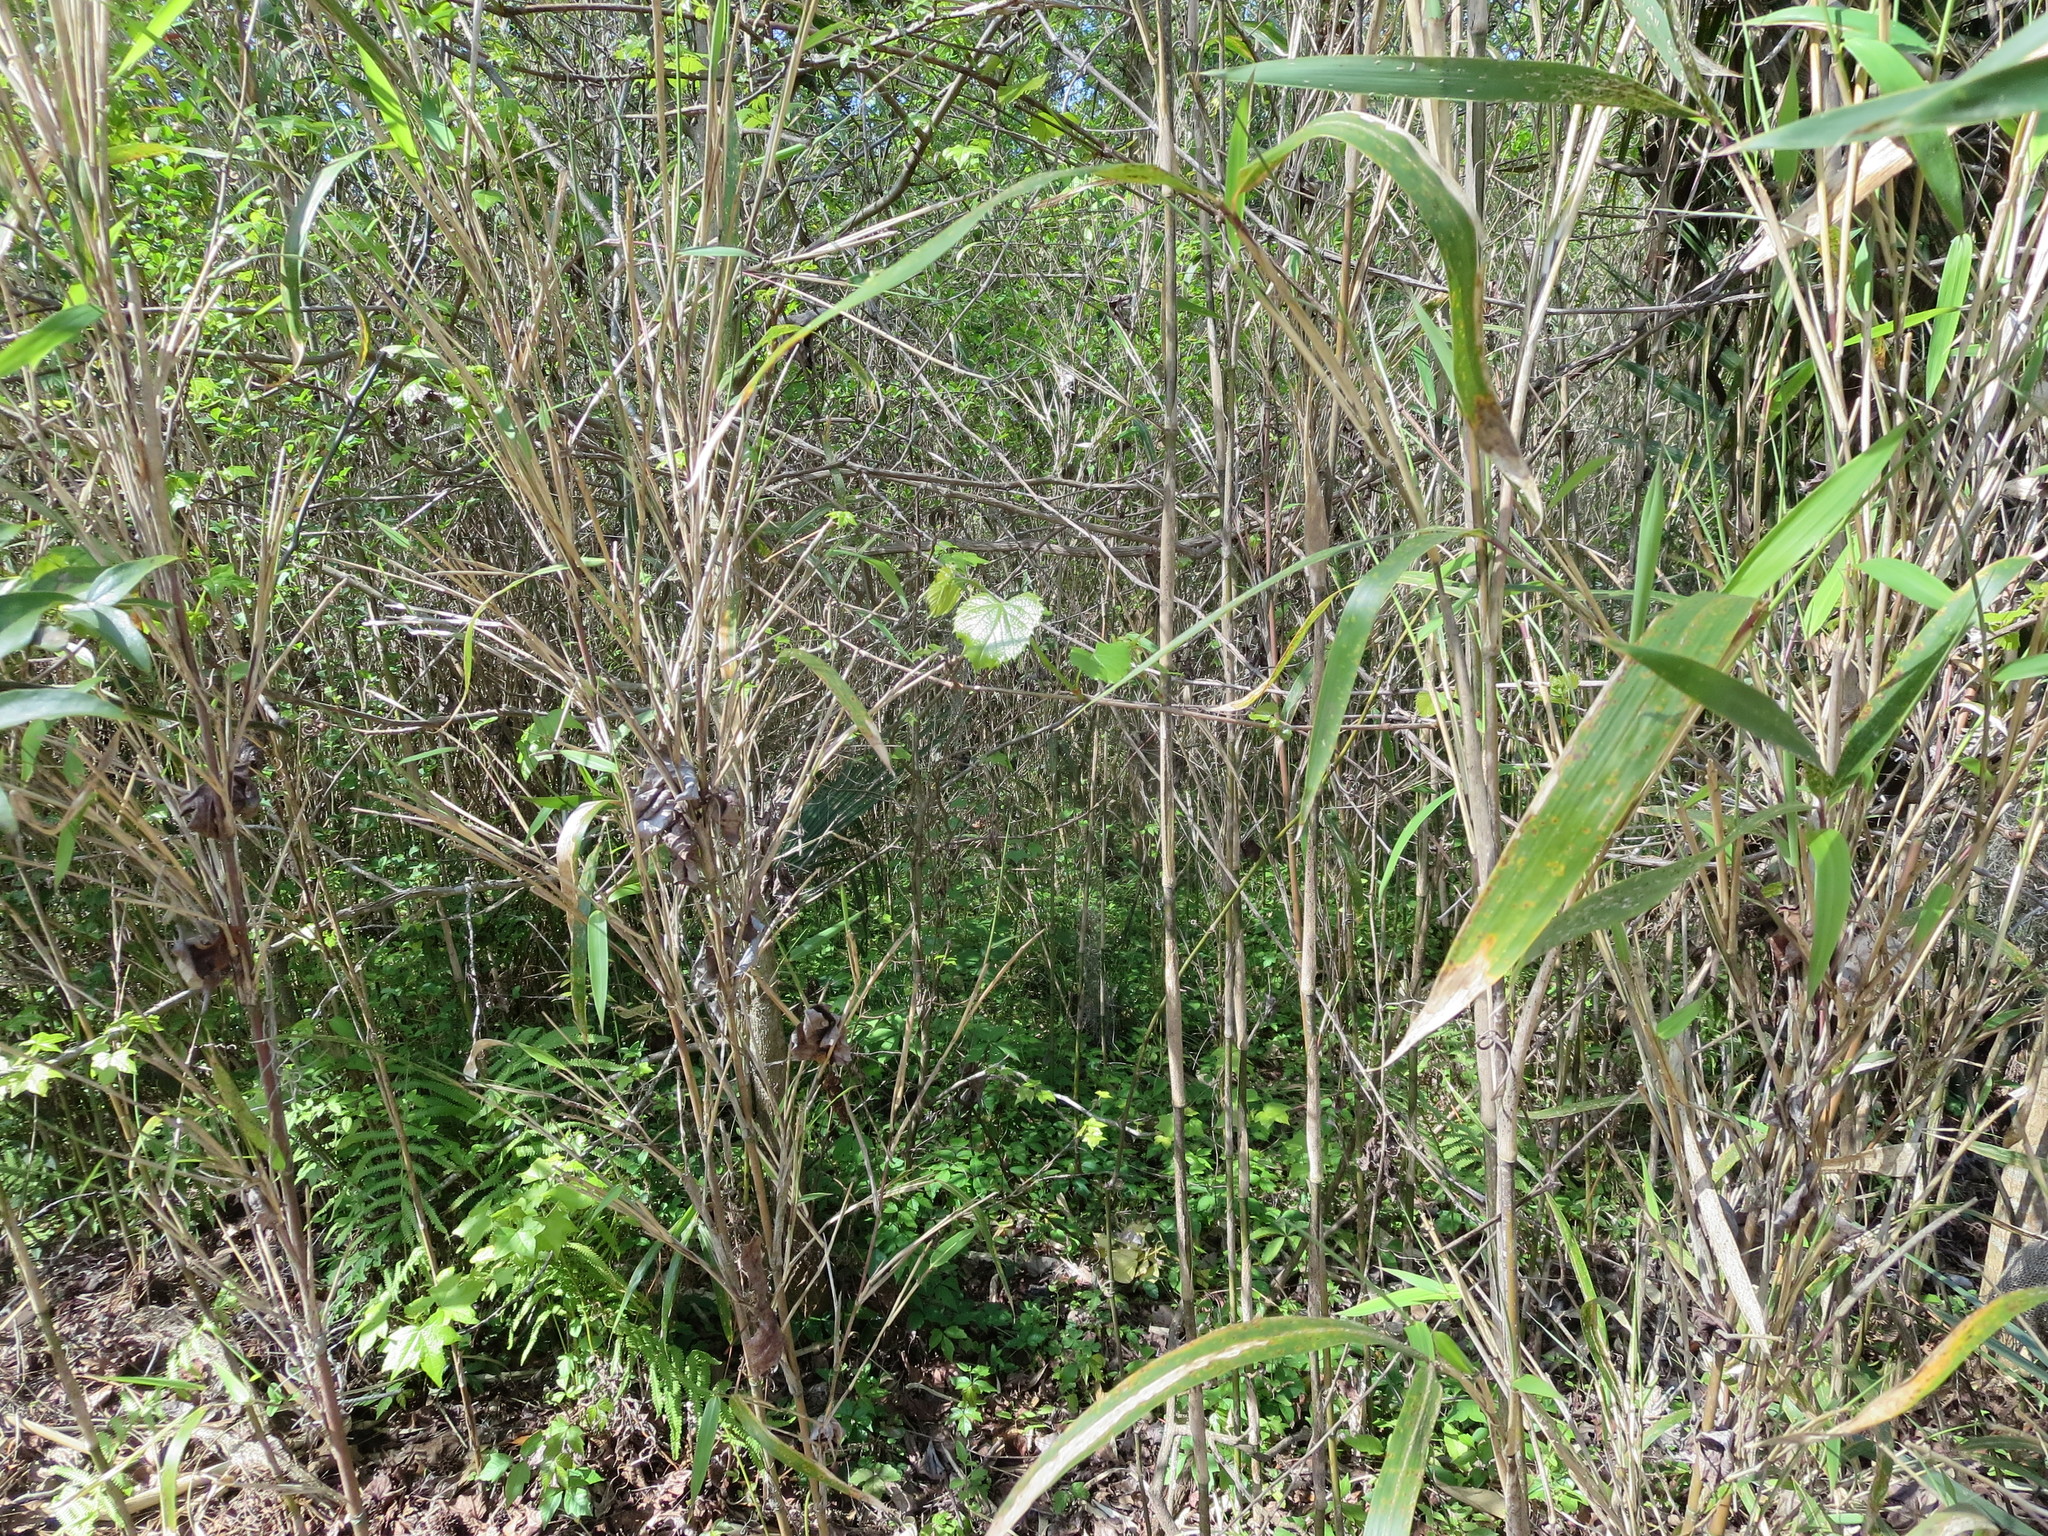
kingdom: Plantae
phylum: Tracheophyta
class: Magnoliopsida
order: Vitales
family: Vitaceae
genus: Vitis
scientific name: Vitis rotundifolia
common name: Muscadine grape
